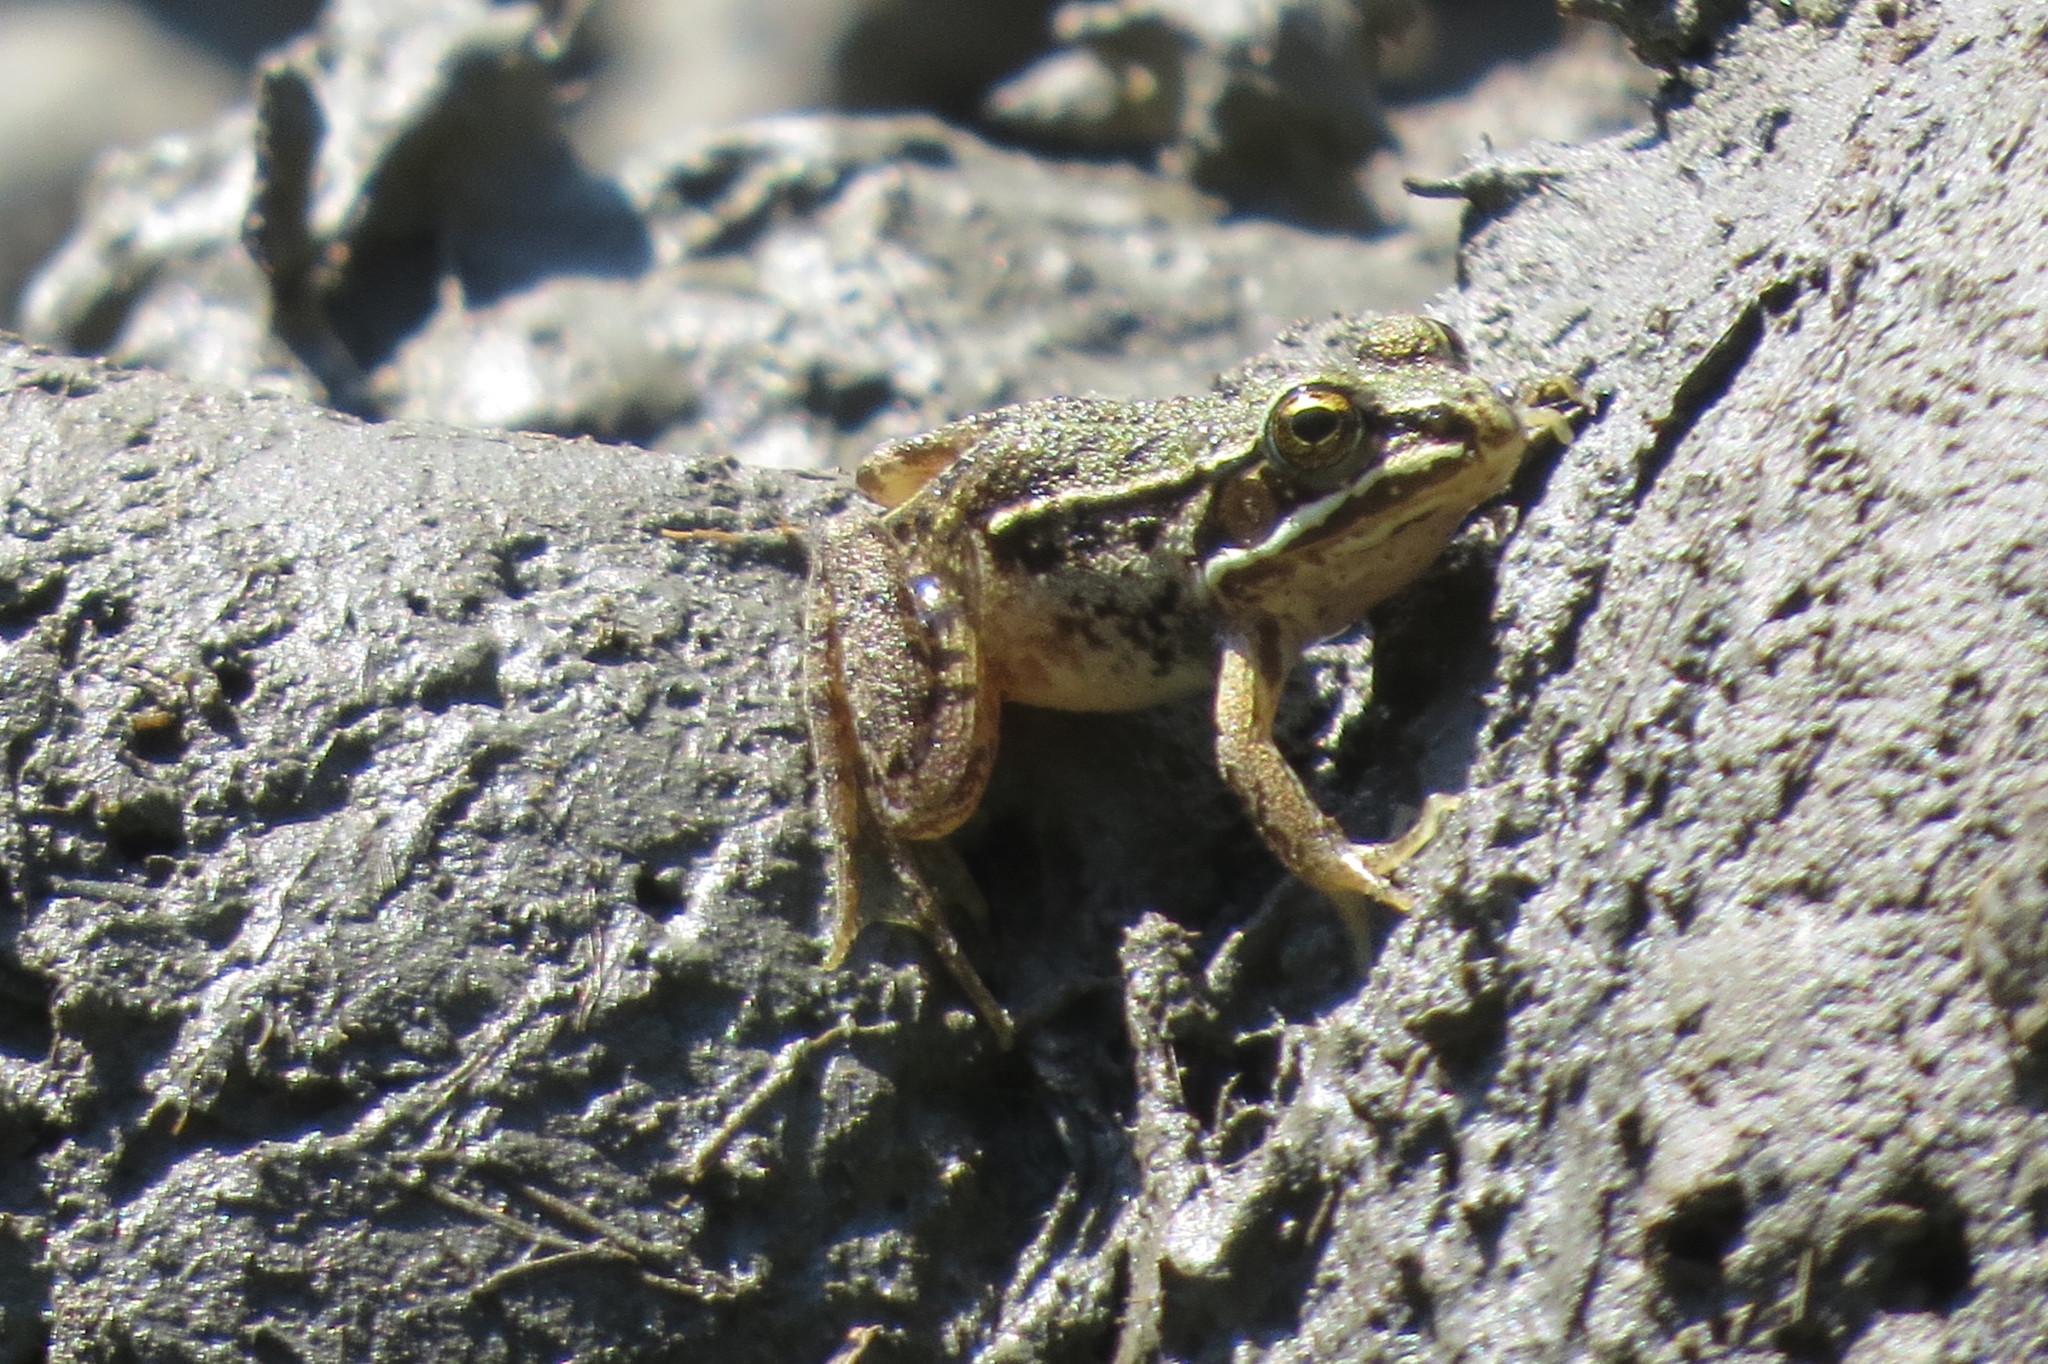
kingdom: Animalia
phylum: Chordata
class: Amphibia
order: Anura
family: Ranidae
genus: Pelophylax
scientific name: Pelophylax
